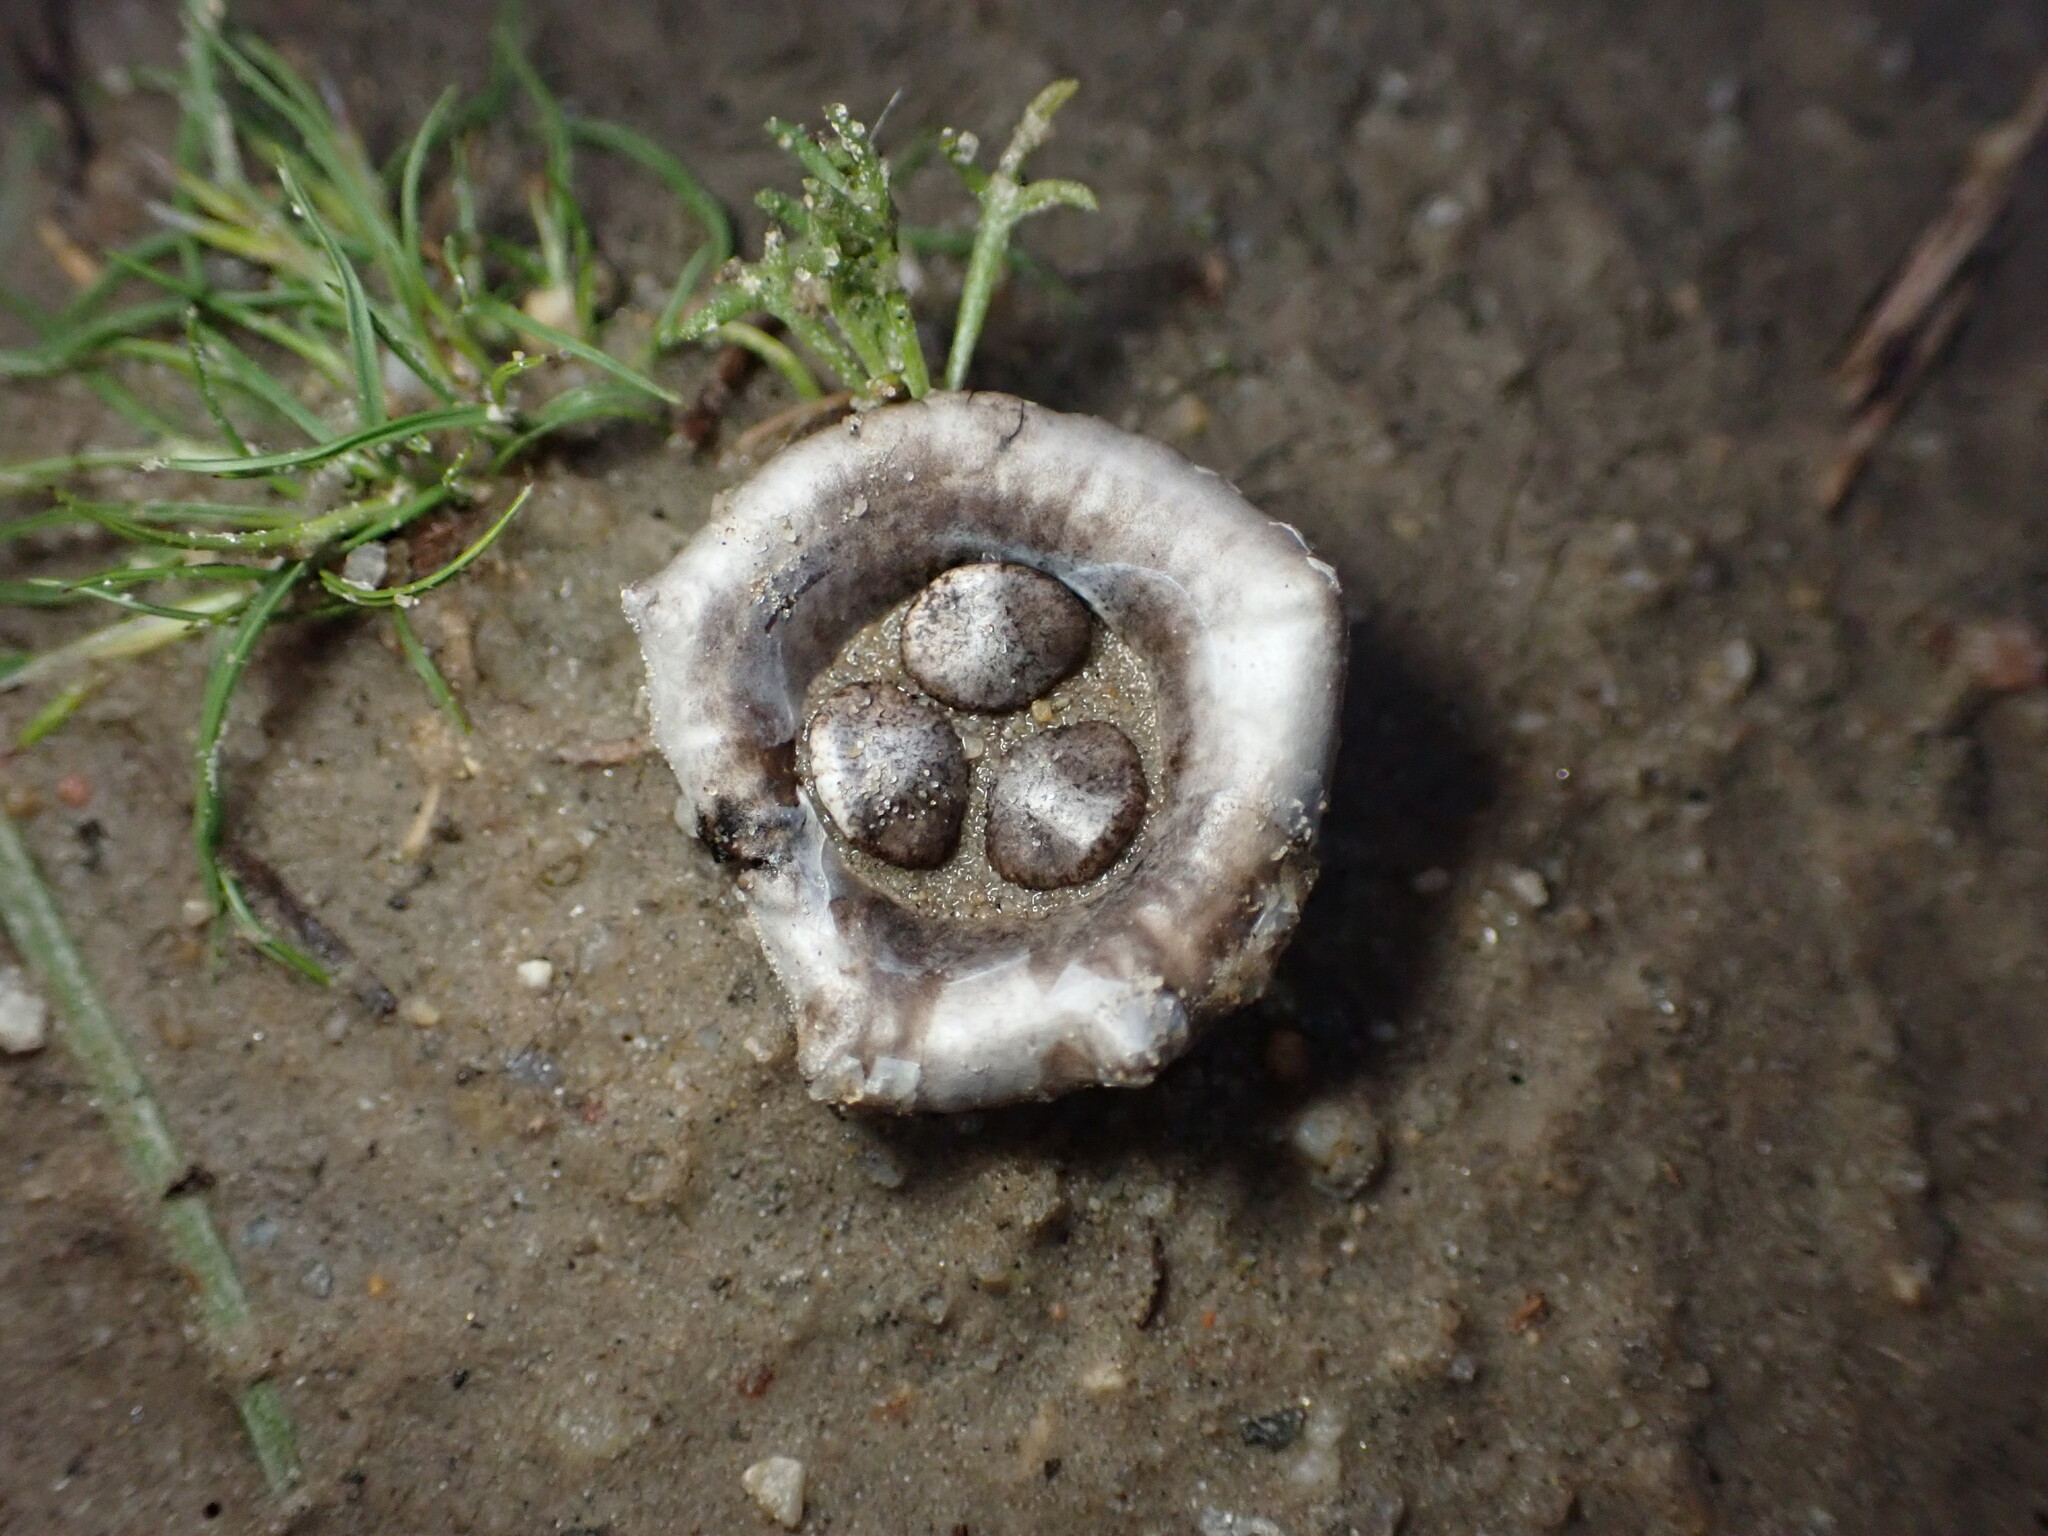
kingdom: Fungi
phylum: Basidiomycota
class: Agaricomycetes
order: Agaricales
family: Agaricaceae
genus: Cyathus
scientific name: Cyathus olla
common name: Field bird's nest
